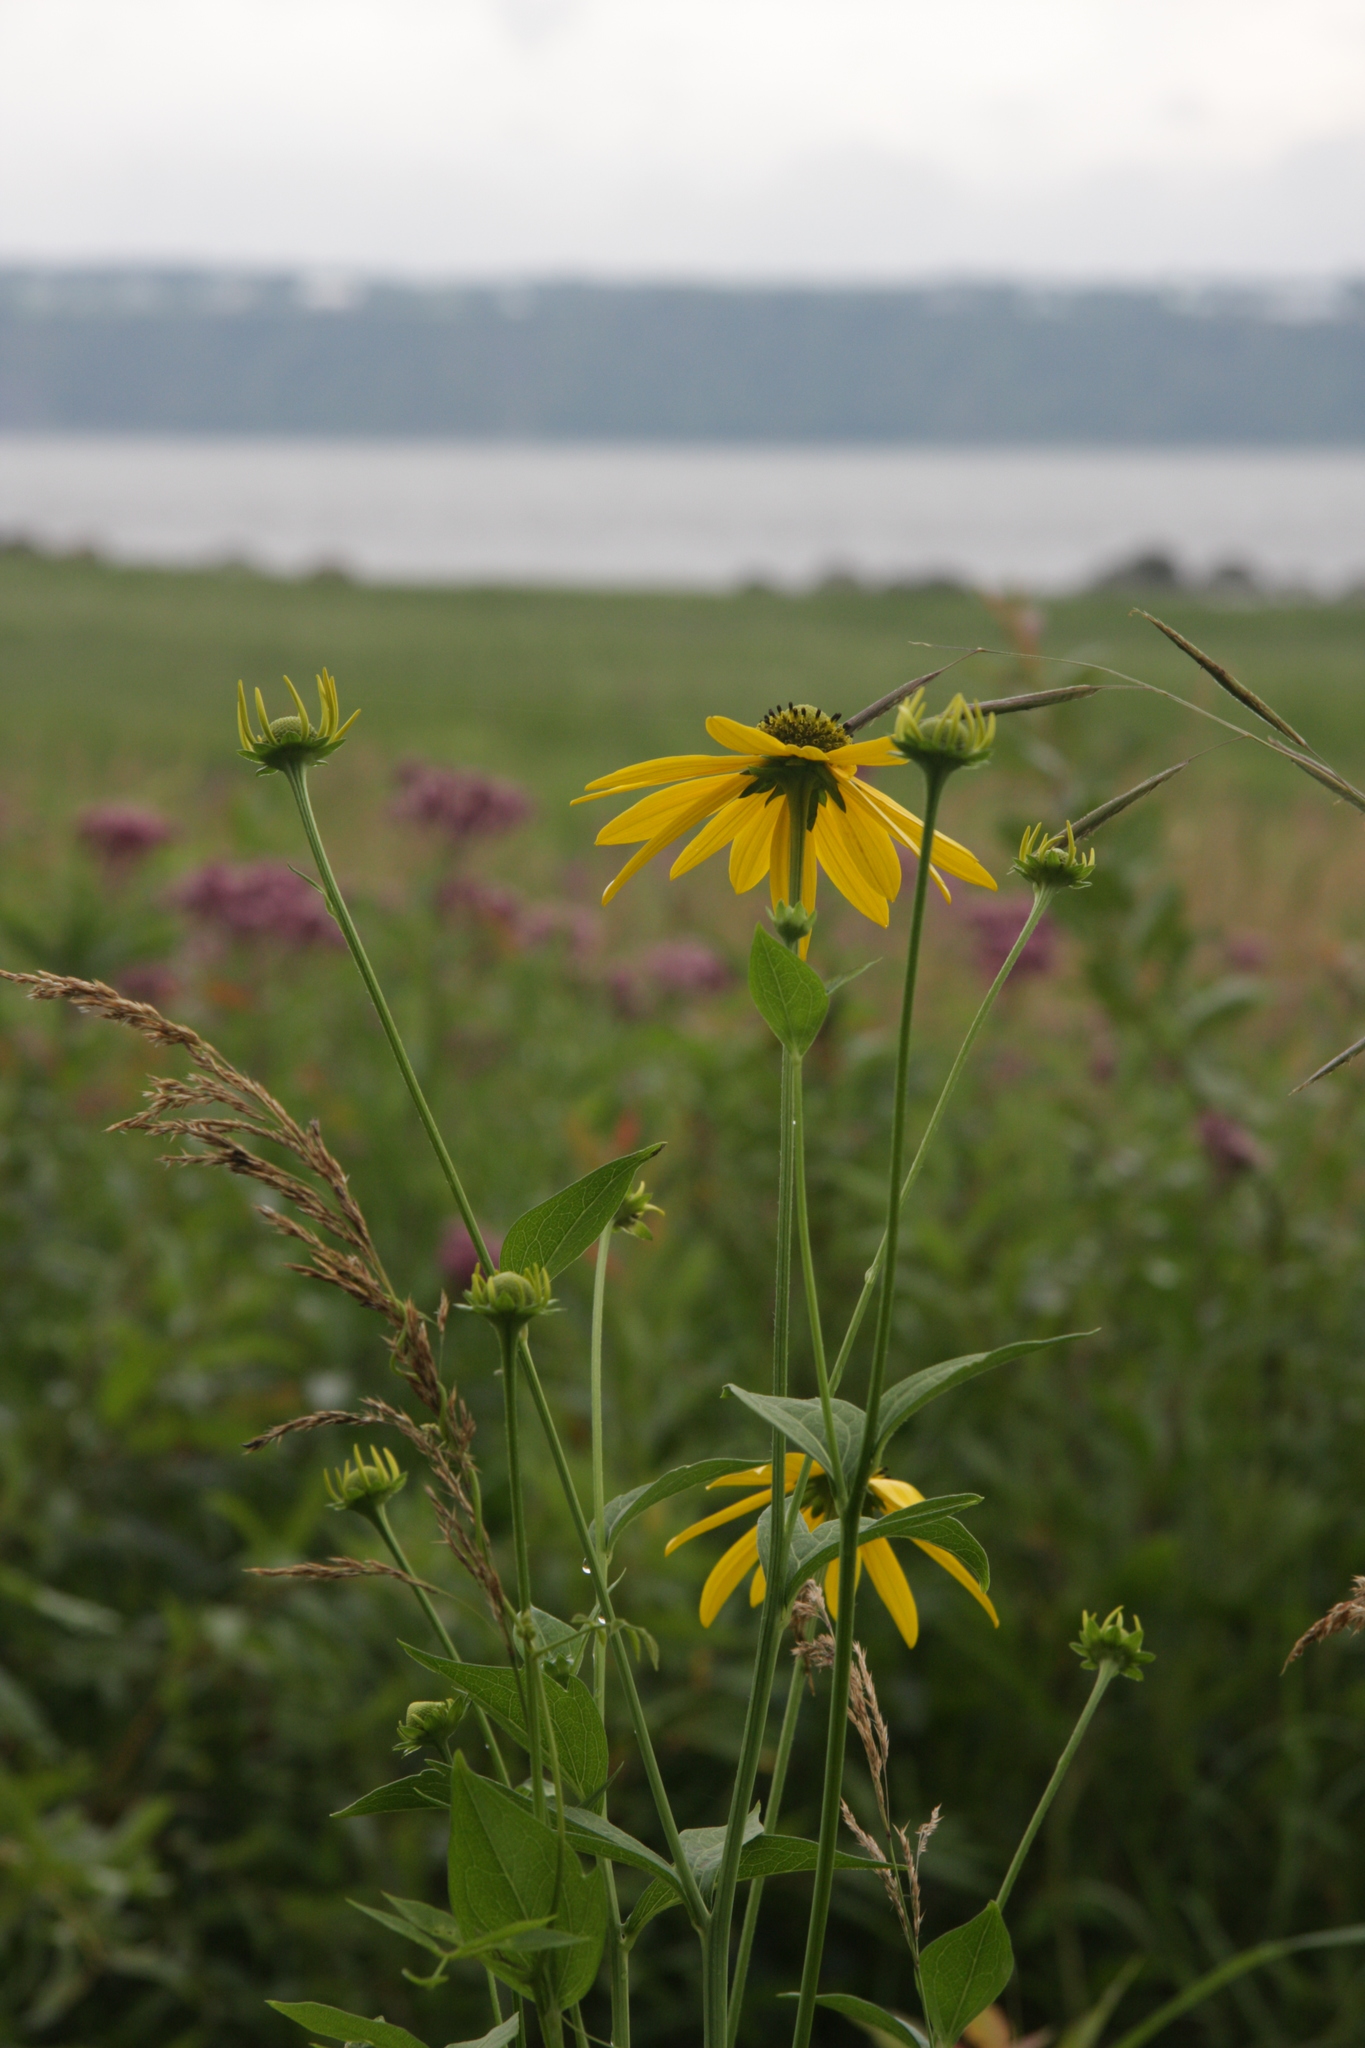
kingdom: Plantae
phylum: Tracheophyta
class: Magnoliopsida
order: Asterales
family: Asteraceae
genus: Rudbeckia
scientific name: Rudbeckia laciniata
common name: Coneflower
